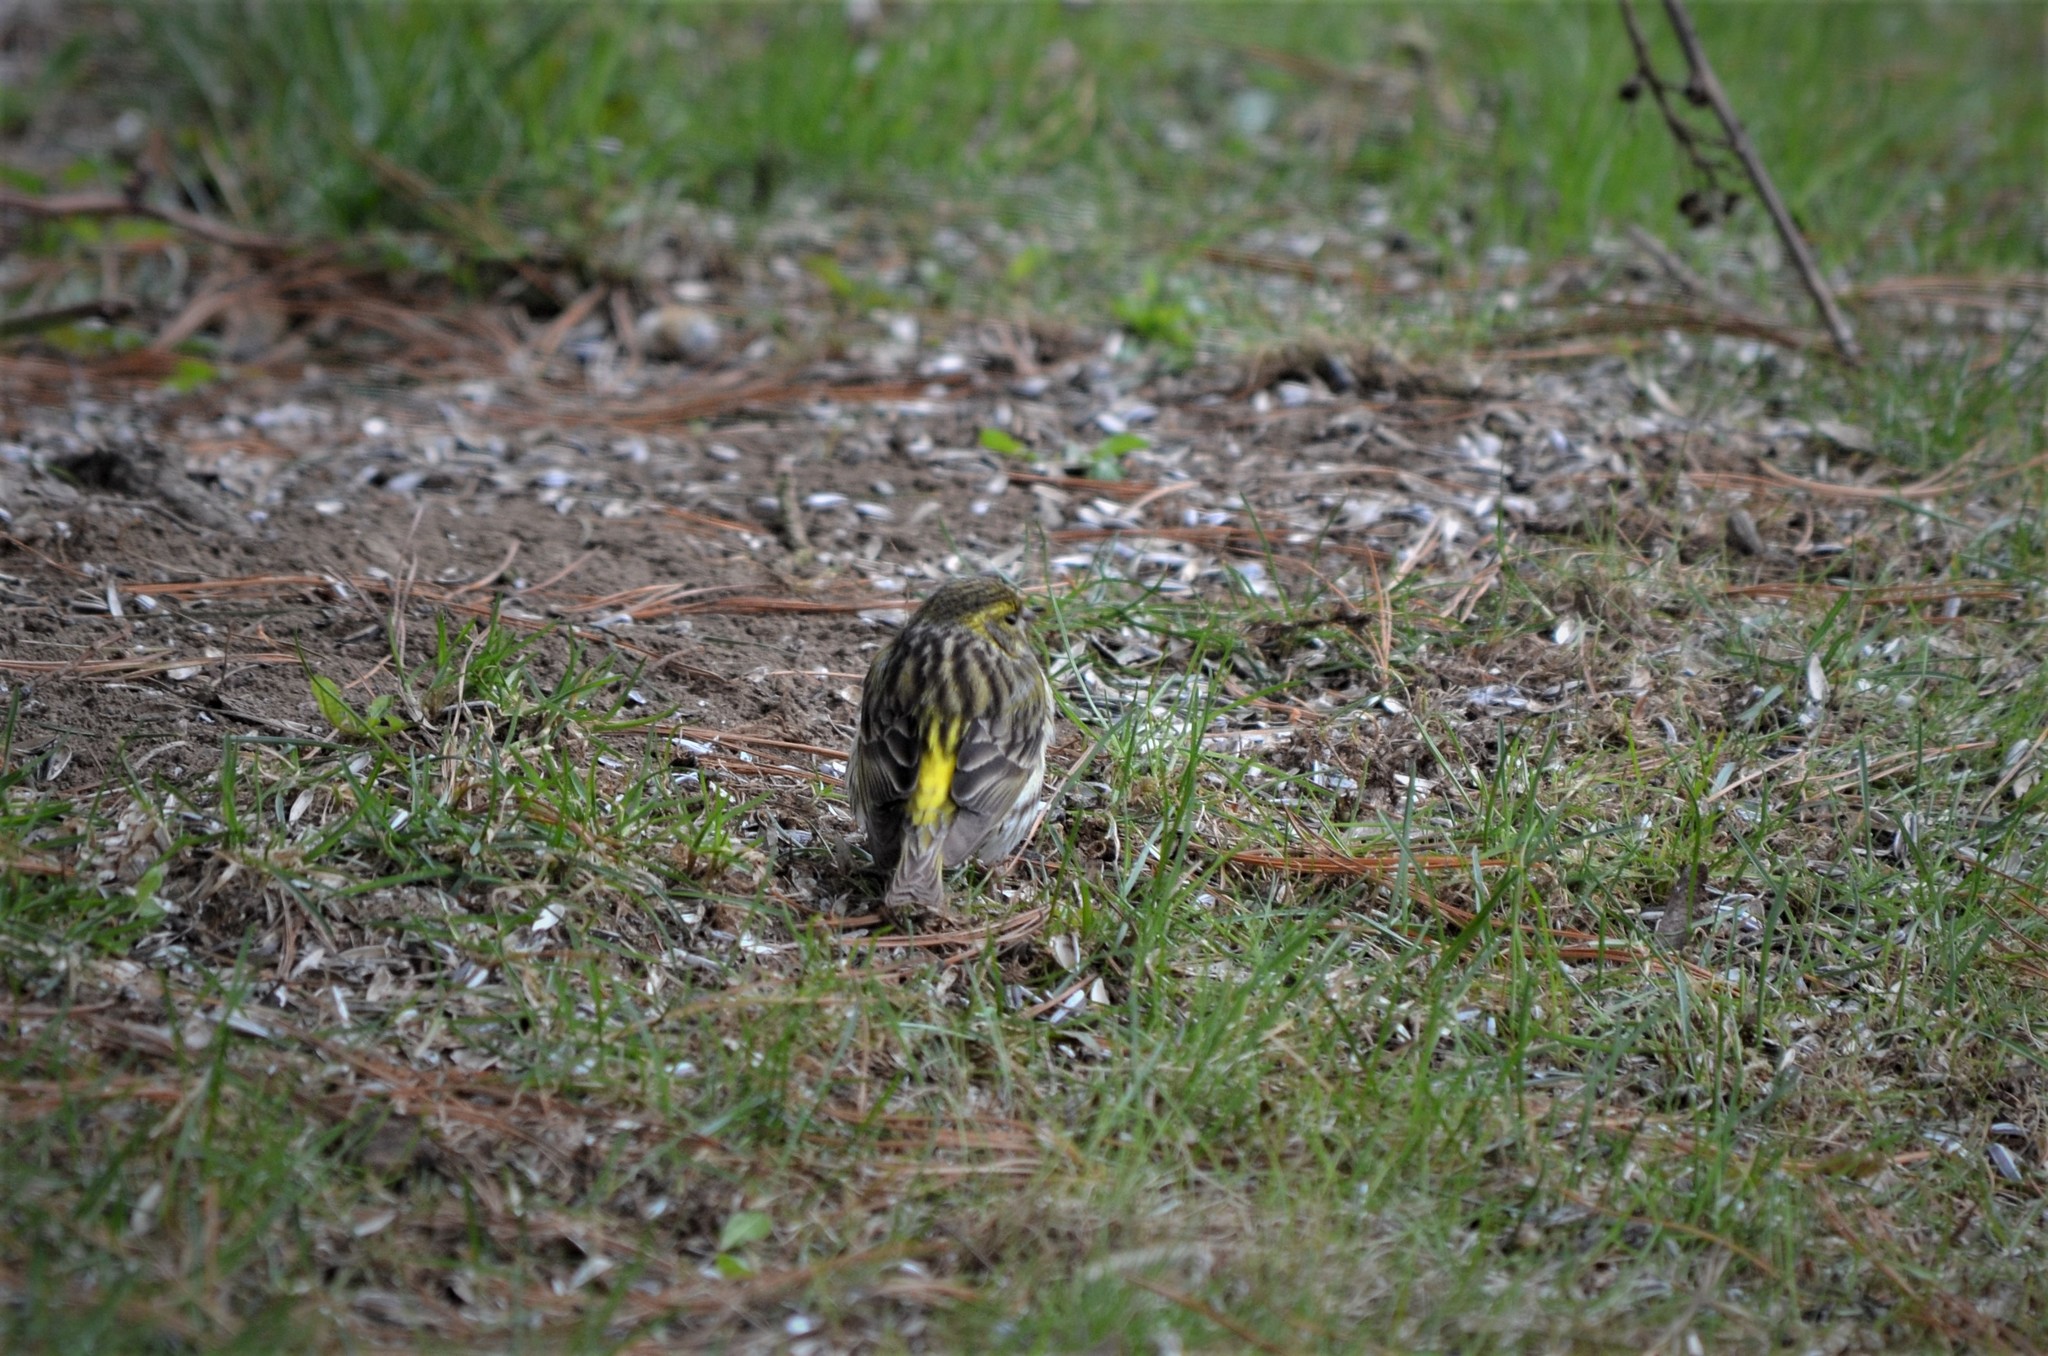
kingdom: Animalia
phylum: Chordata
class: Aves
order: Passeriformes
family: Fringillidae
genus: Serinus
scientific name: Serinus serinus
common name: European serin
